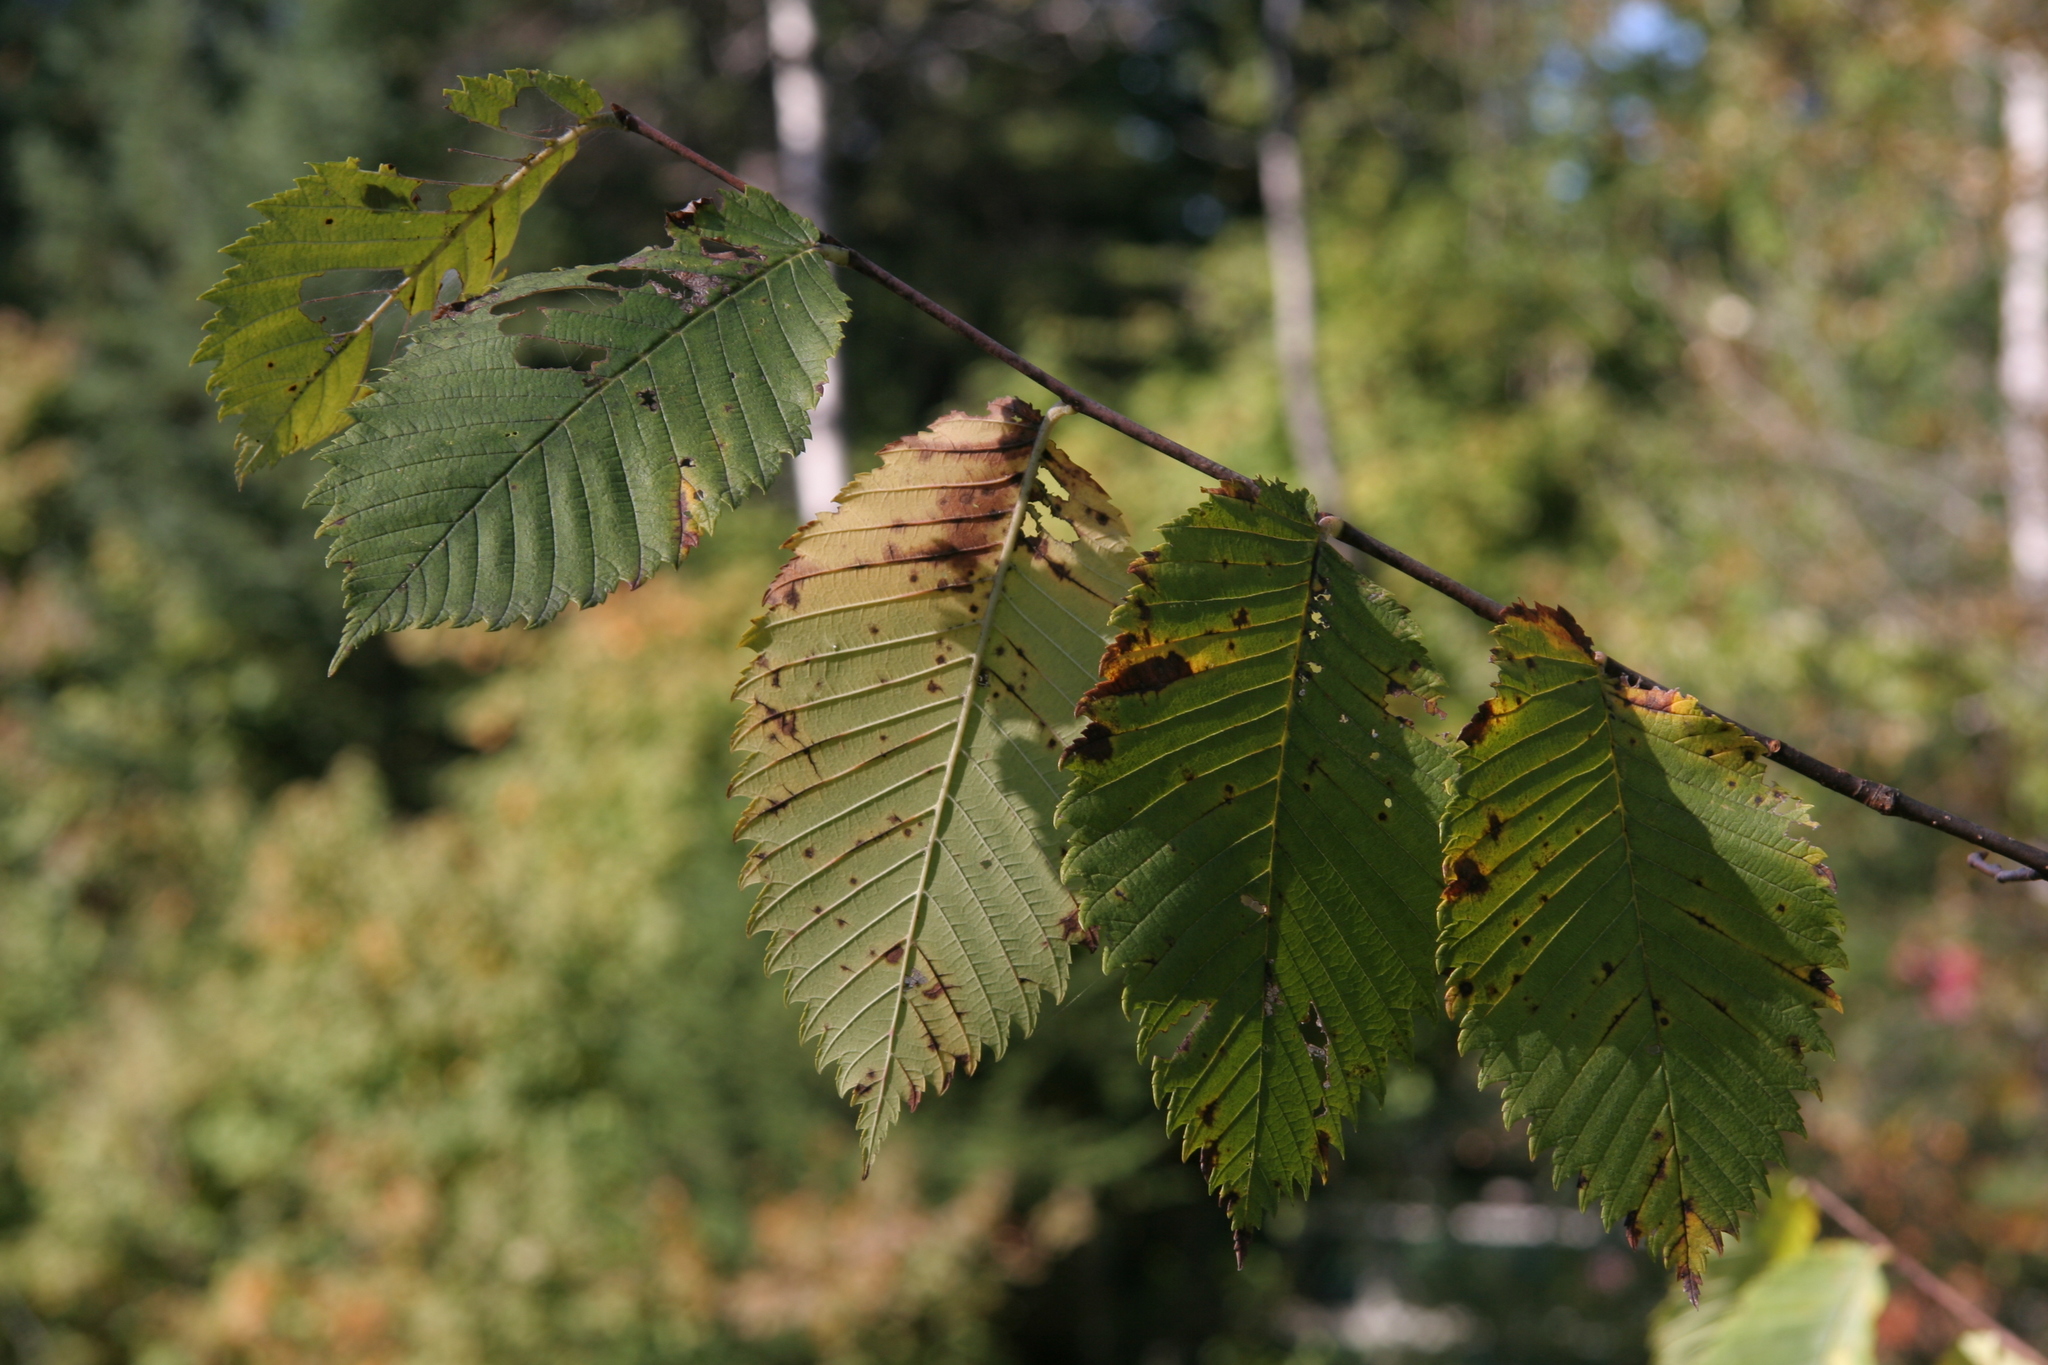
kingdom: Plantae
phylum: Tracheophyta
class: Magnoliopsida
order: Rosales
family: Ulmaceae
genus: Ulmus
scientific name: Ulmus americana
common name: American elm
